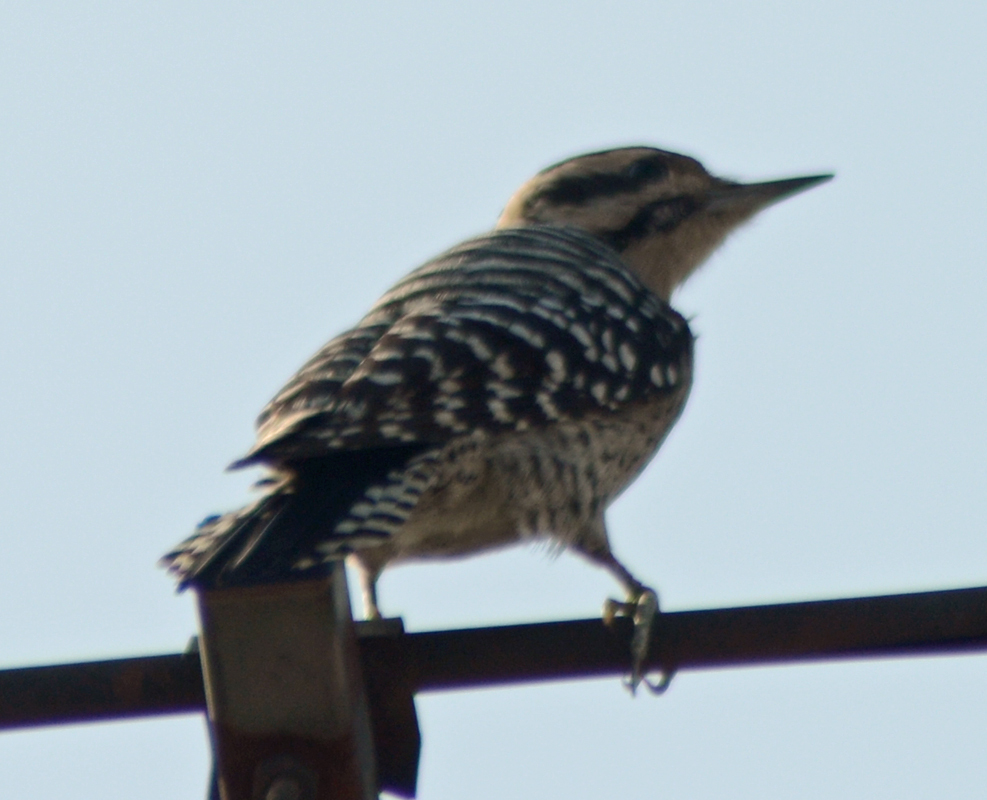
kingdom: Animalia
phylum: Chordata
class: Aves
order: Piciformes
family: Picidae
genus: Dryobates
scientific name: Dryobates scalaris
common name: Ladder-backed woodpecker
